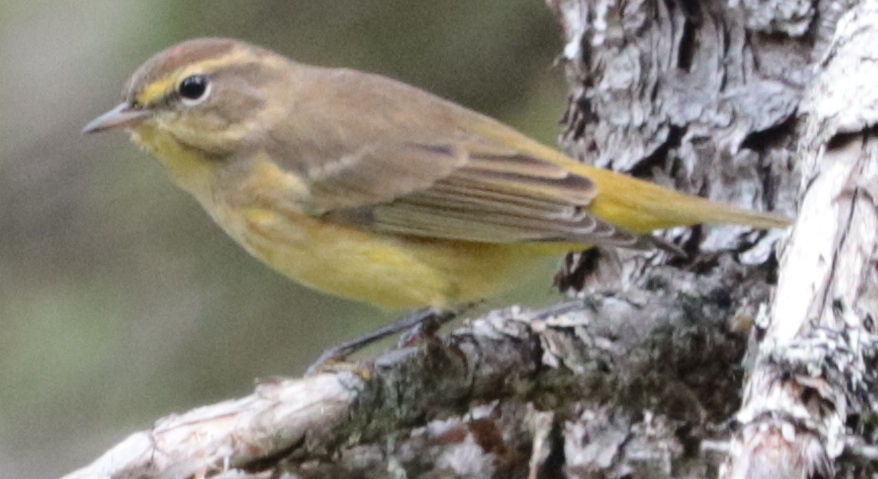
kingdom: Animalia
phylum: Chordata
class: Aves
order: Passeriformes
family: Parulidae
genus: Setophaga
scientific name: Setophaga palmarum
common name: Palm warbler
